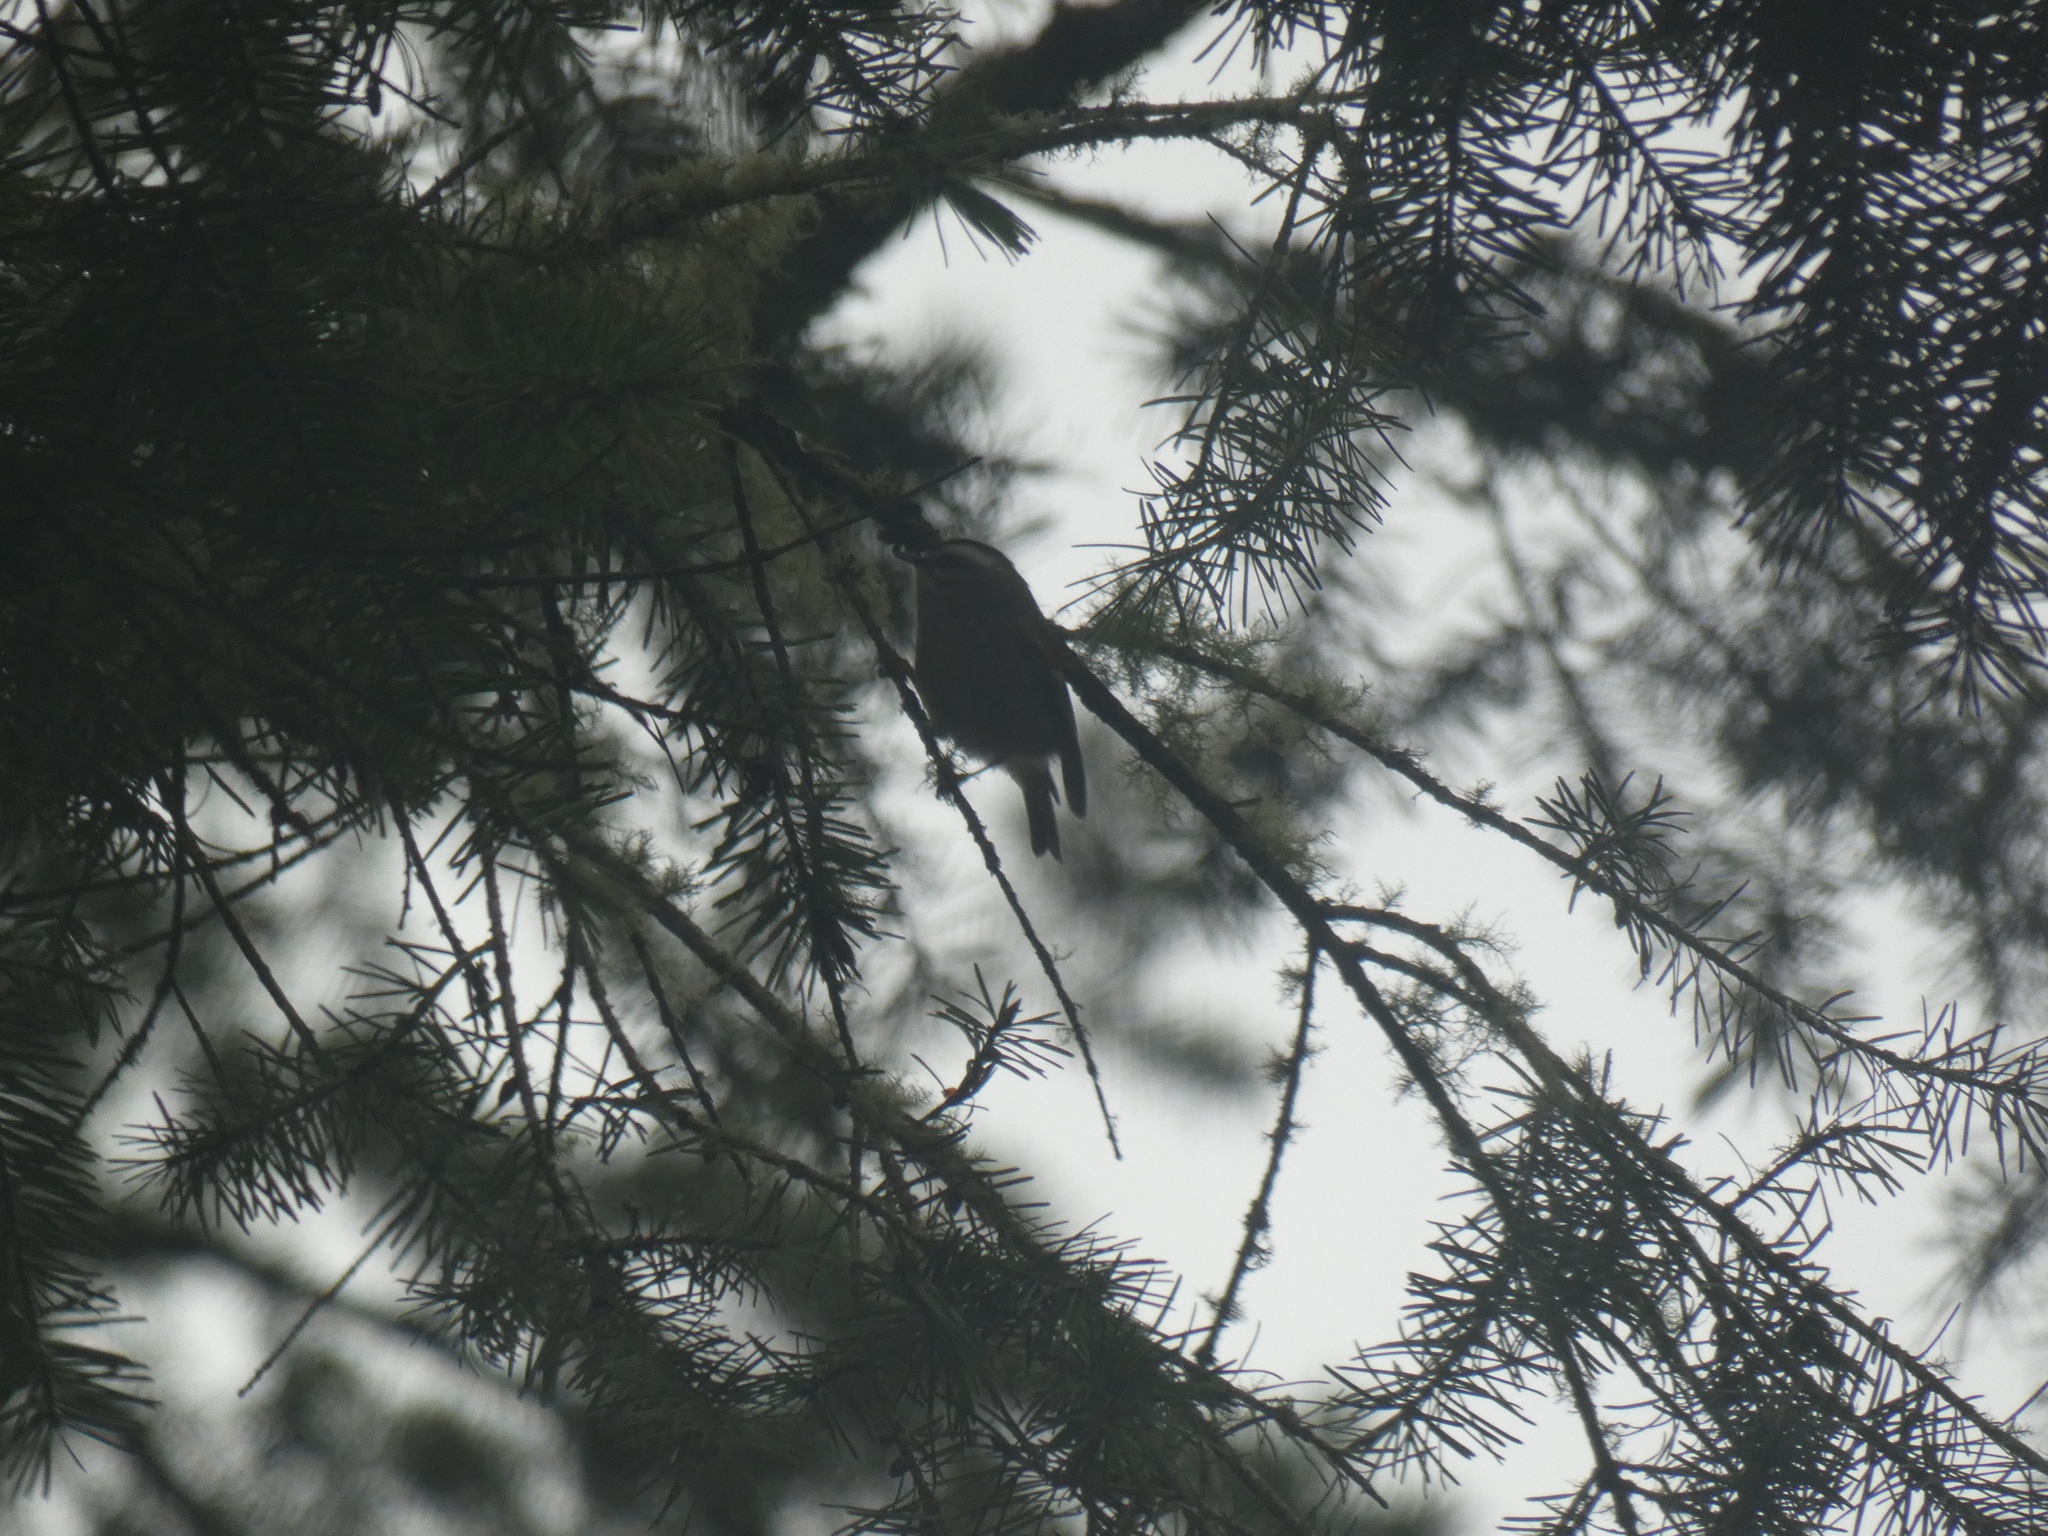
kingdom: Animalia
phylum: Chordata
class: Aves
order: Passeriformes
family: Regulidae
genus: Regulus
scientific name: Regulus satrapa
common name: Golden-crowned kinglet
